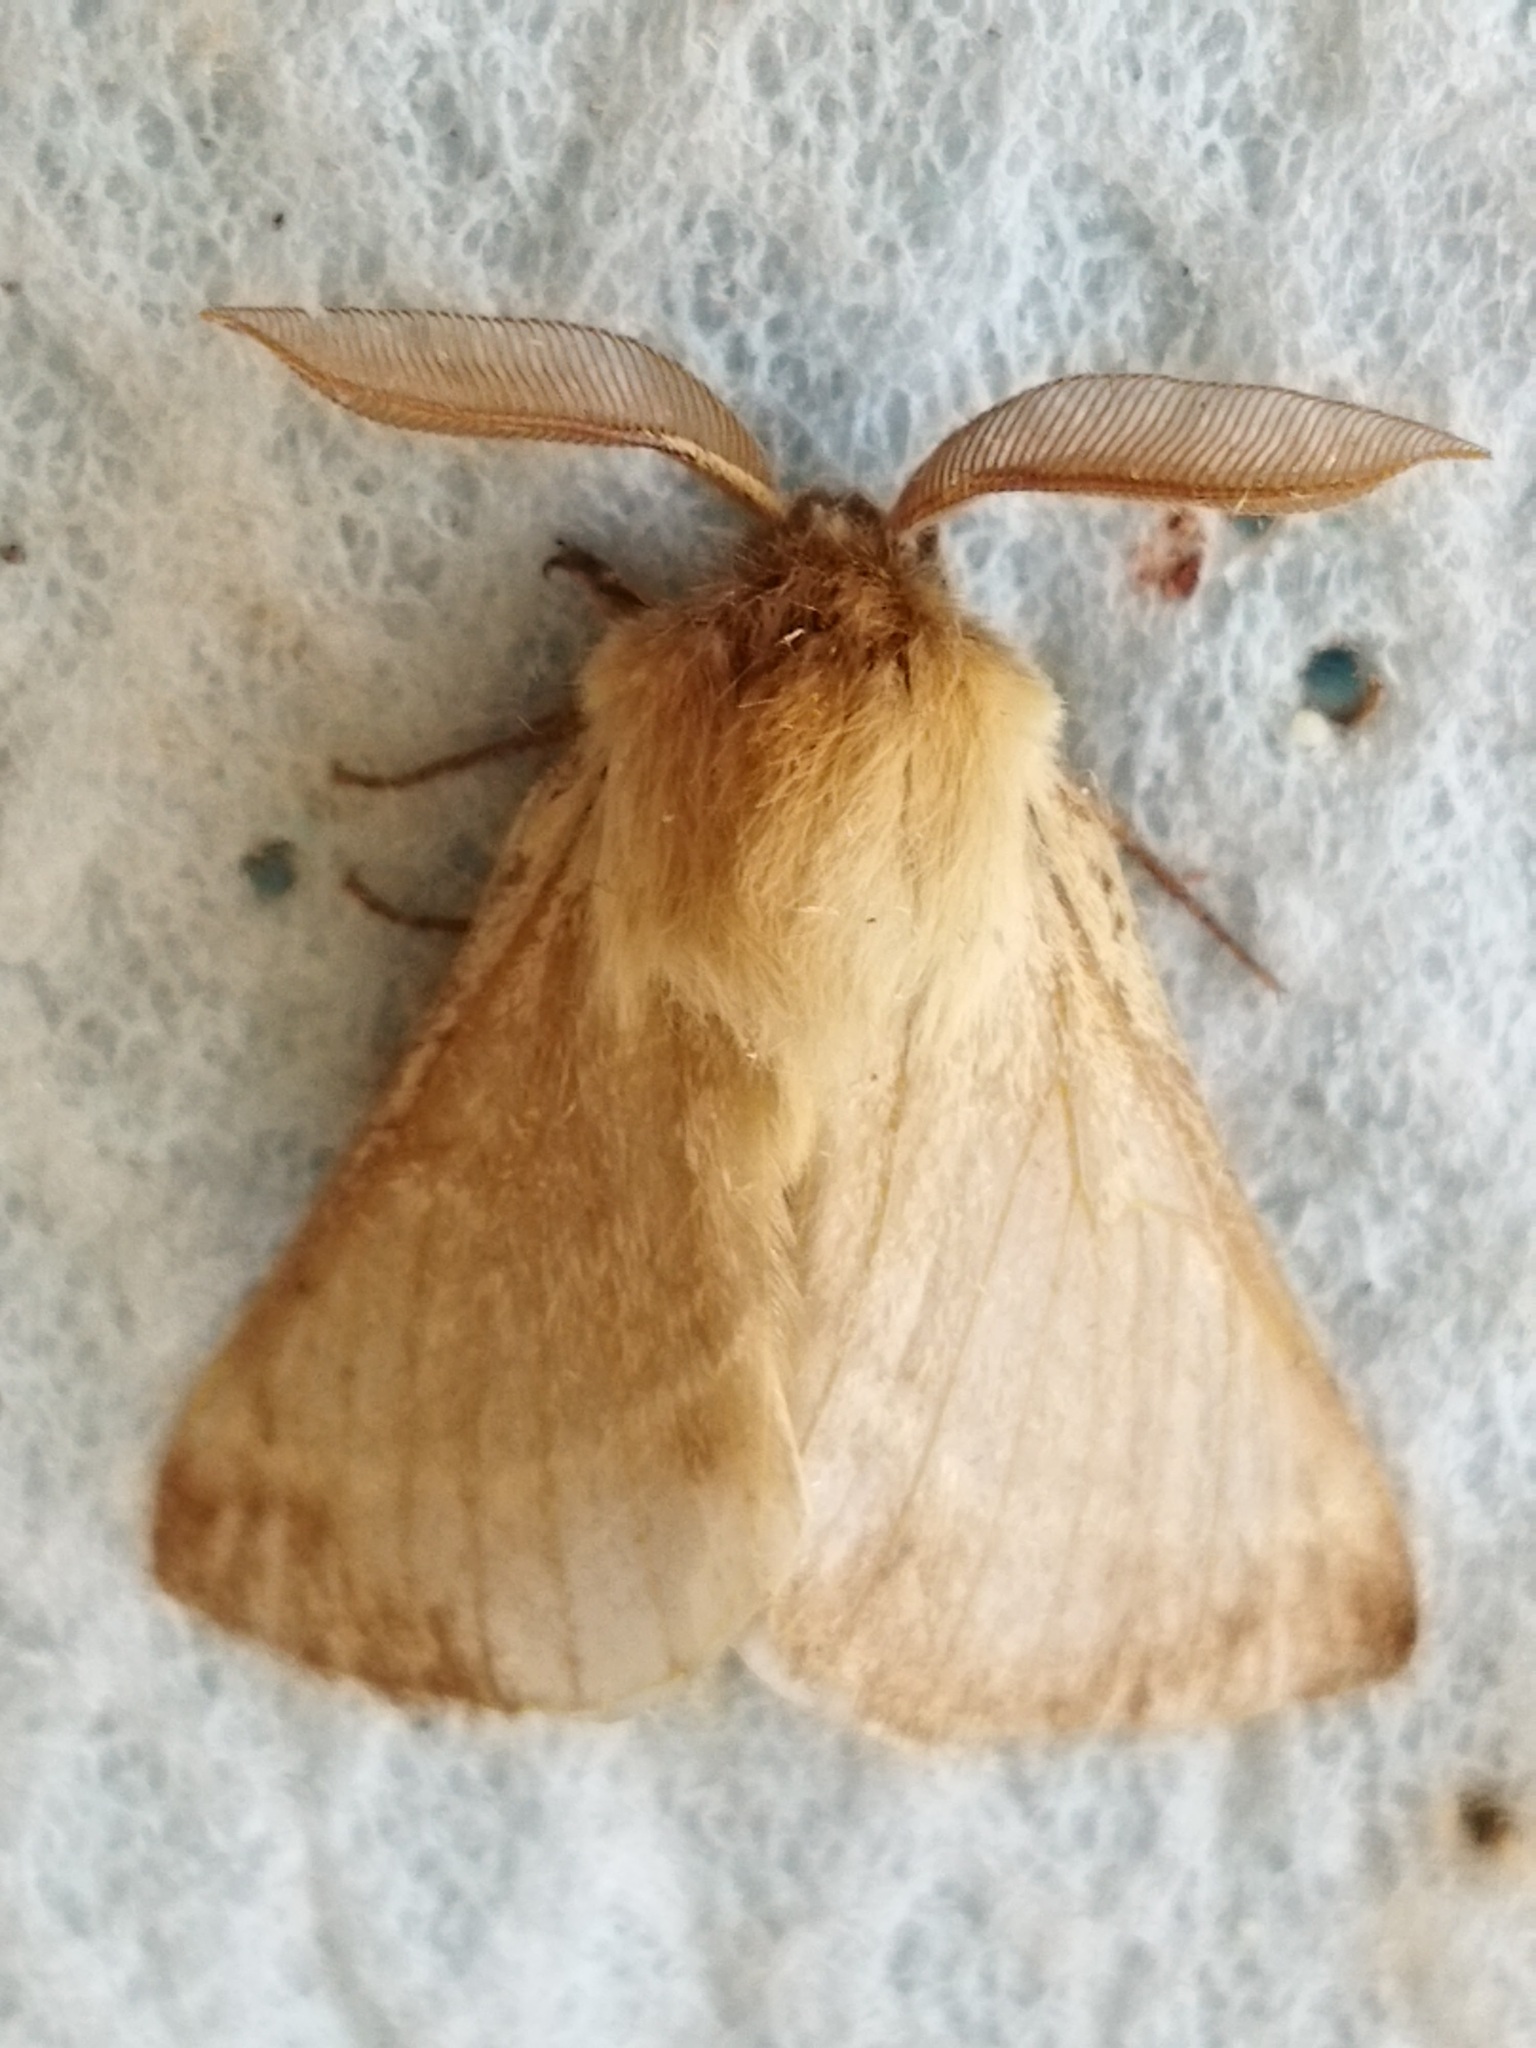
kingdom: Animalia
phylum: Arthropoda
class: Insecta
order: Lepidoptera
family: Brahmaeidae
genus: Lemonia
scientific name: Lemonia balcanica
